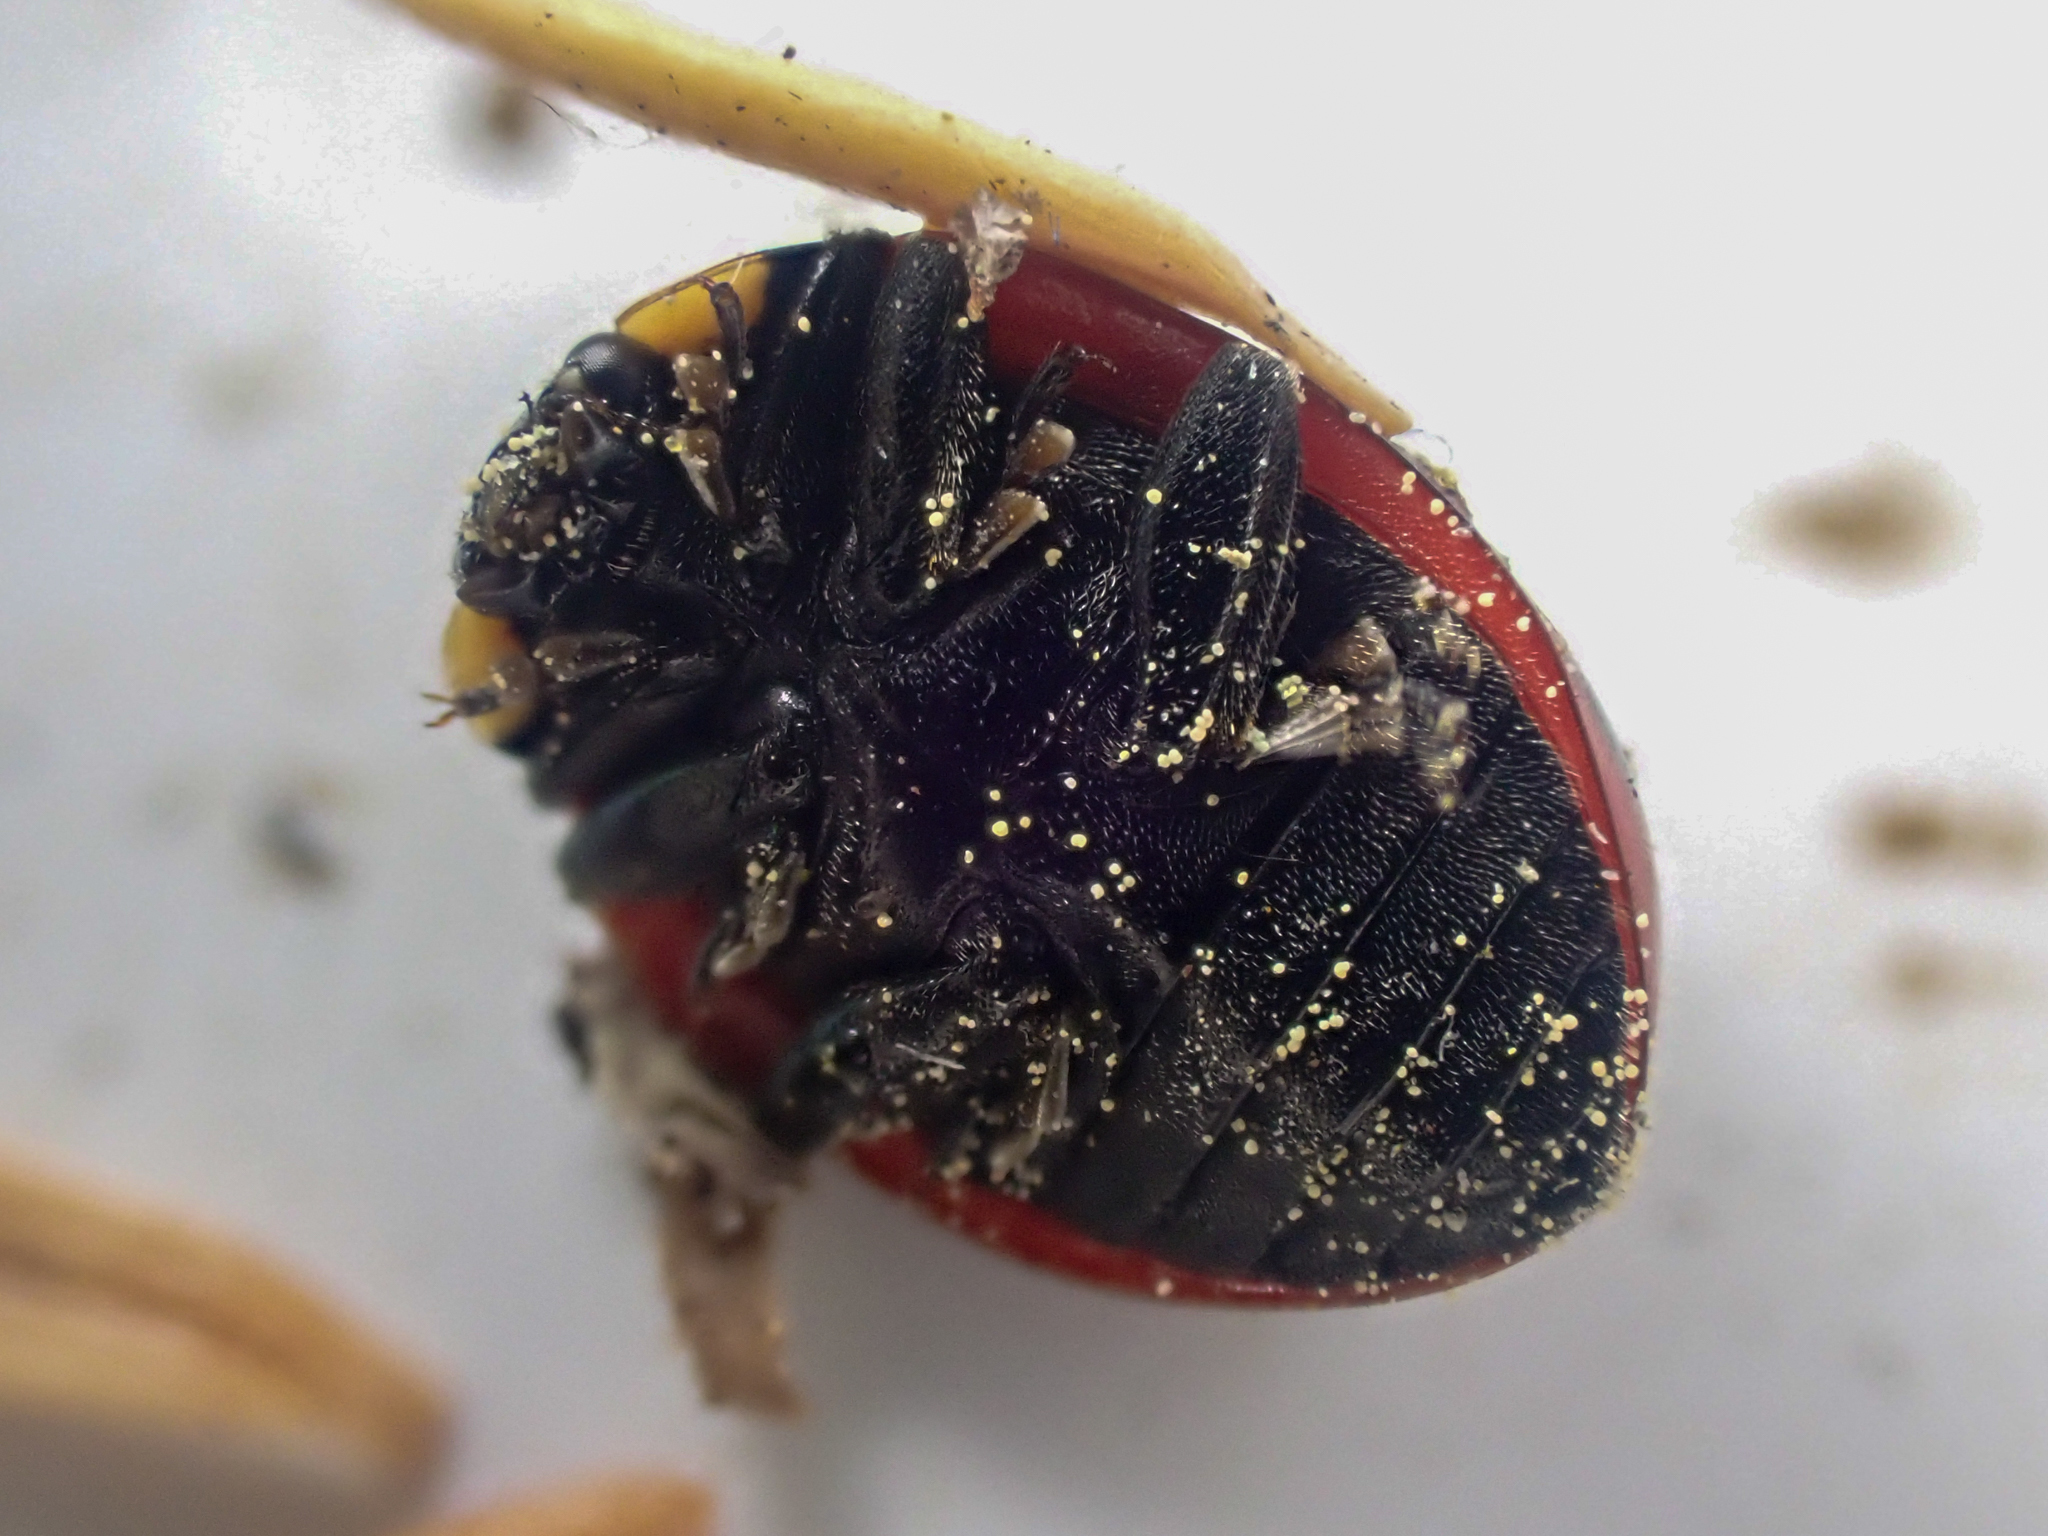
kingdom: Animalia
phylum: Arthropoda
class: Insecta
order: Coleoptera
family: Coccinellidae
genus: Coccinella
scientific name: Coccinella monticola
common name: Mountain lady beetle
